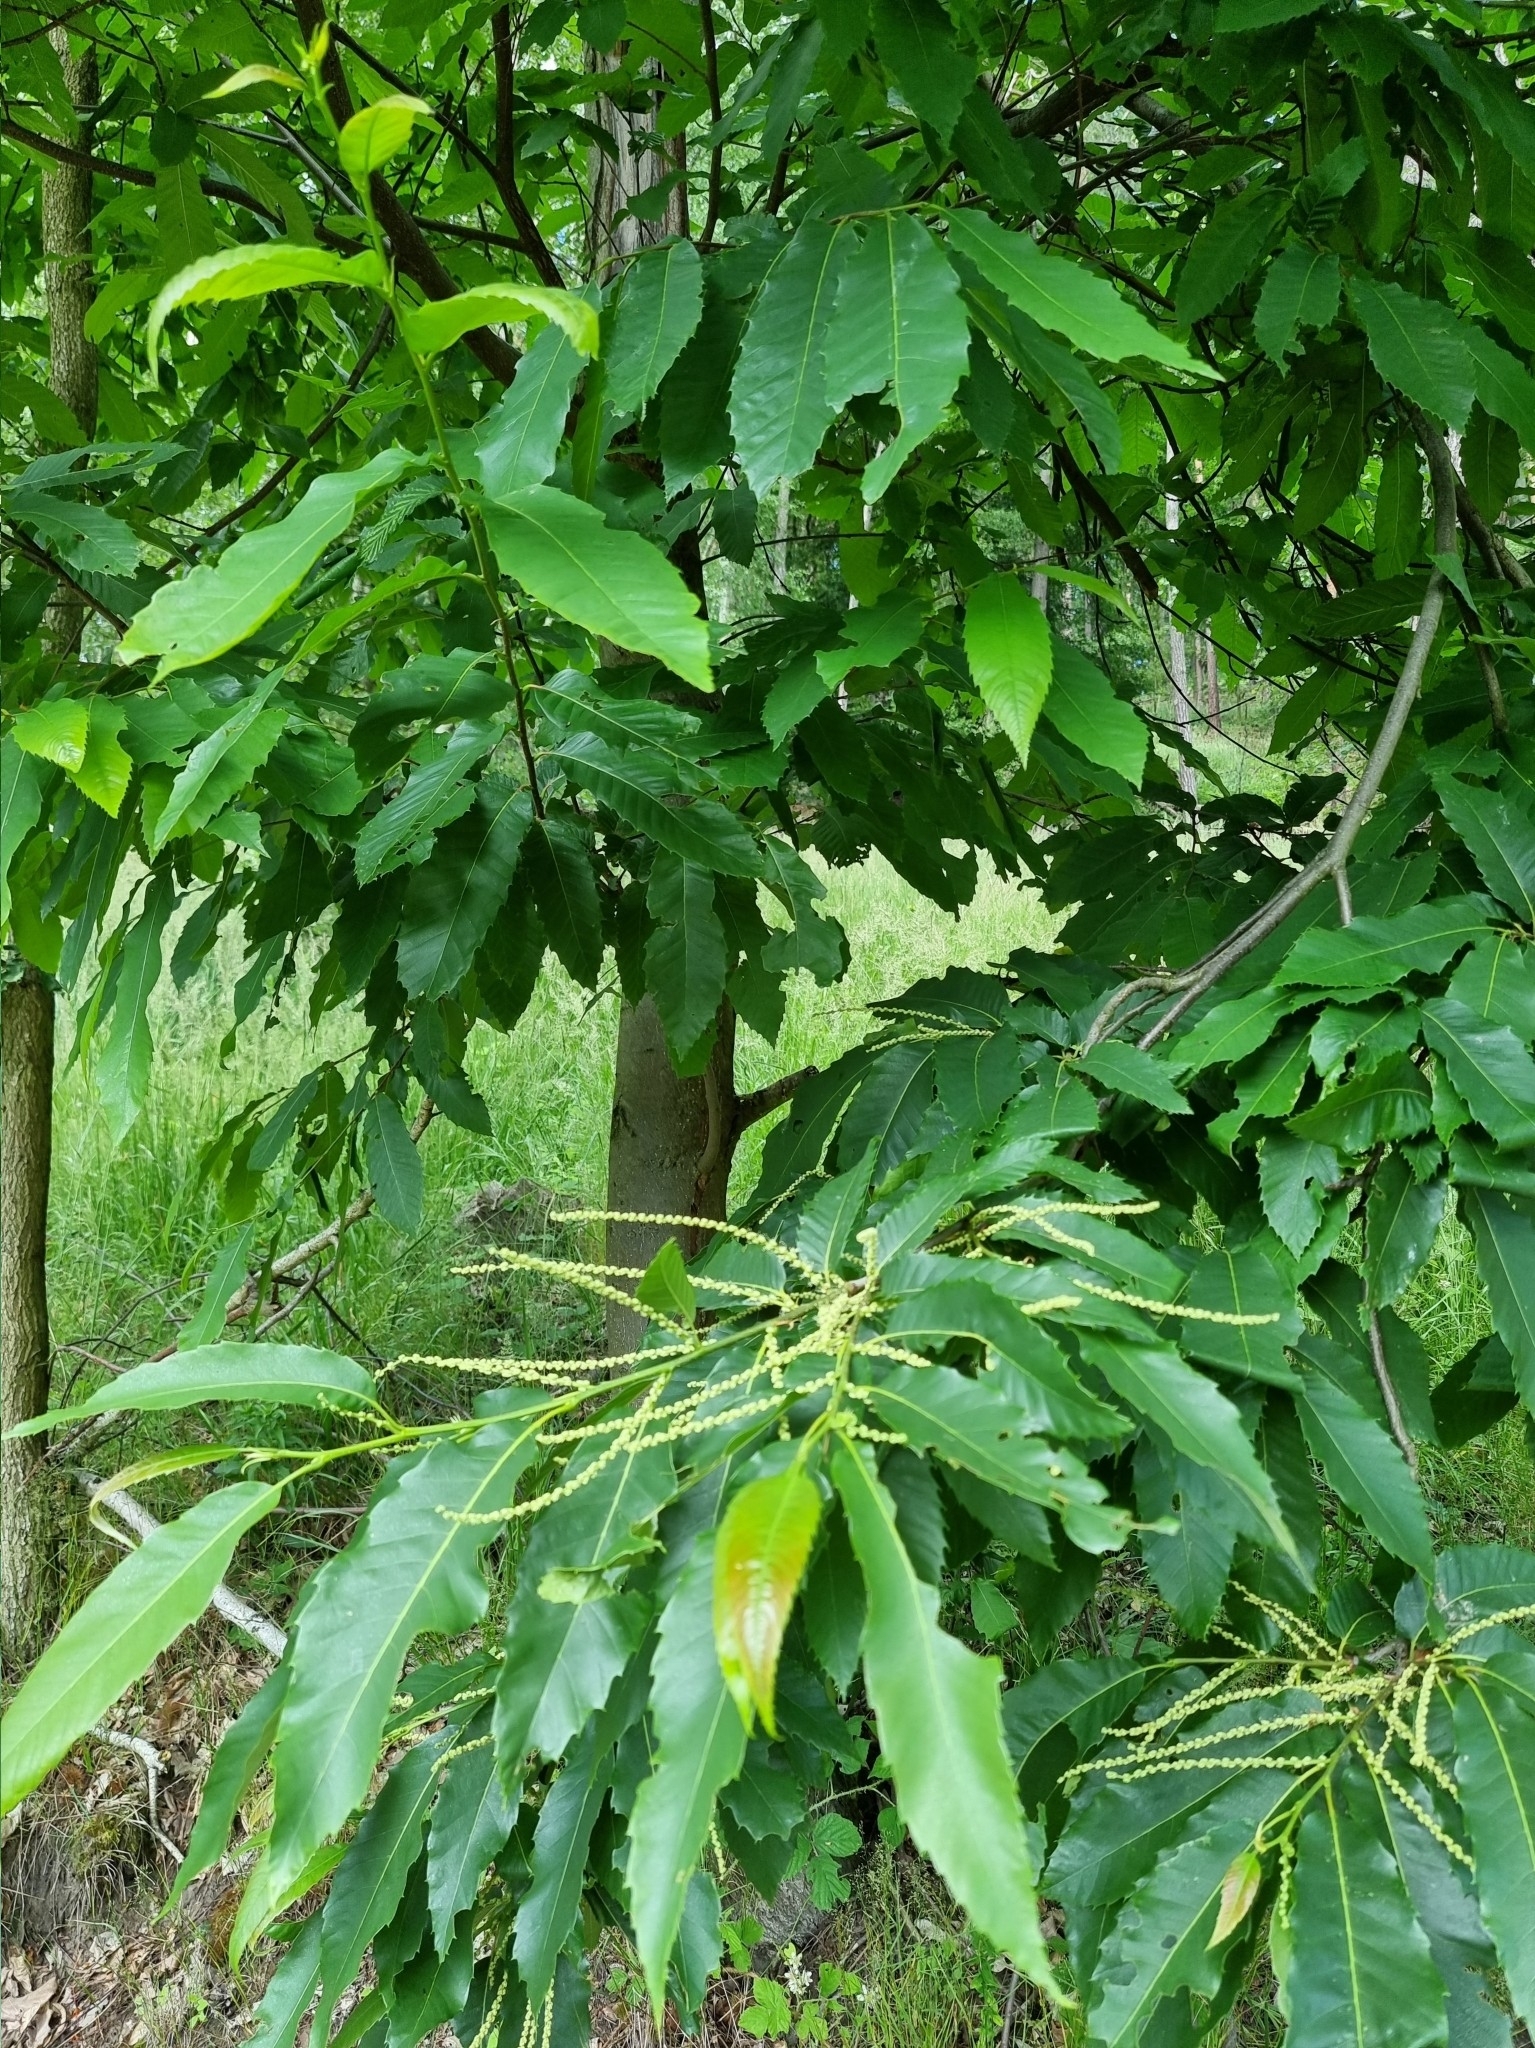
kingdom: Plantae
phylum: Tracheophyta
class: Magnoliopsida
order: Fagales
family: Fagaceae
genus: Castanea
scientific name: Castanea sativa
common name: Sweet chestnut
